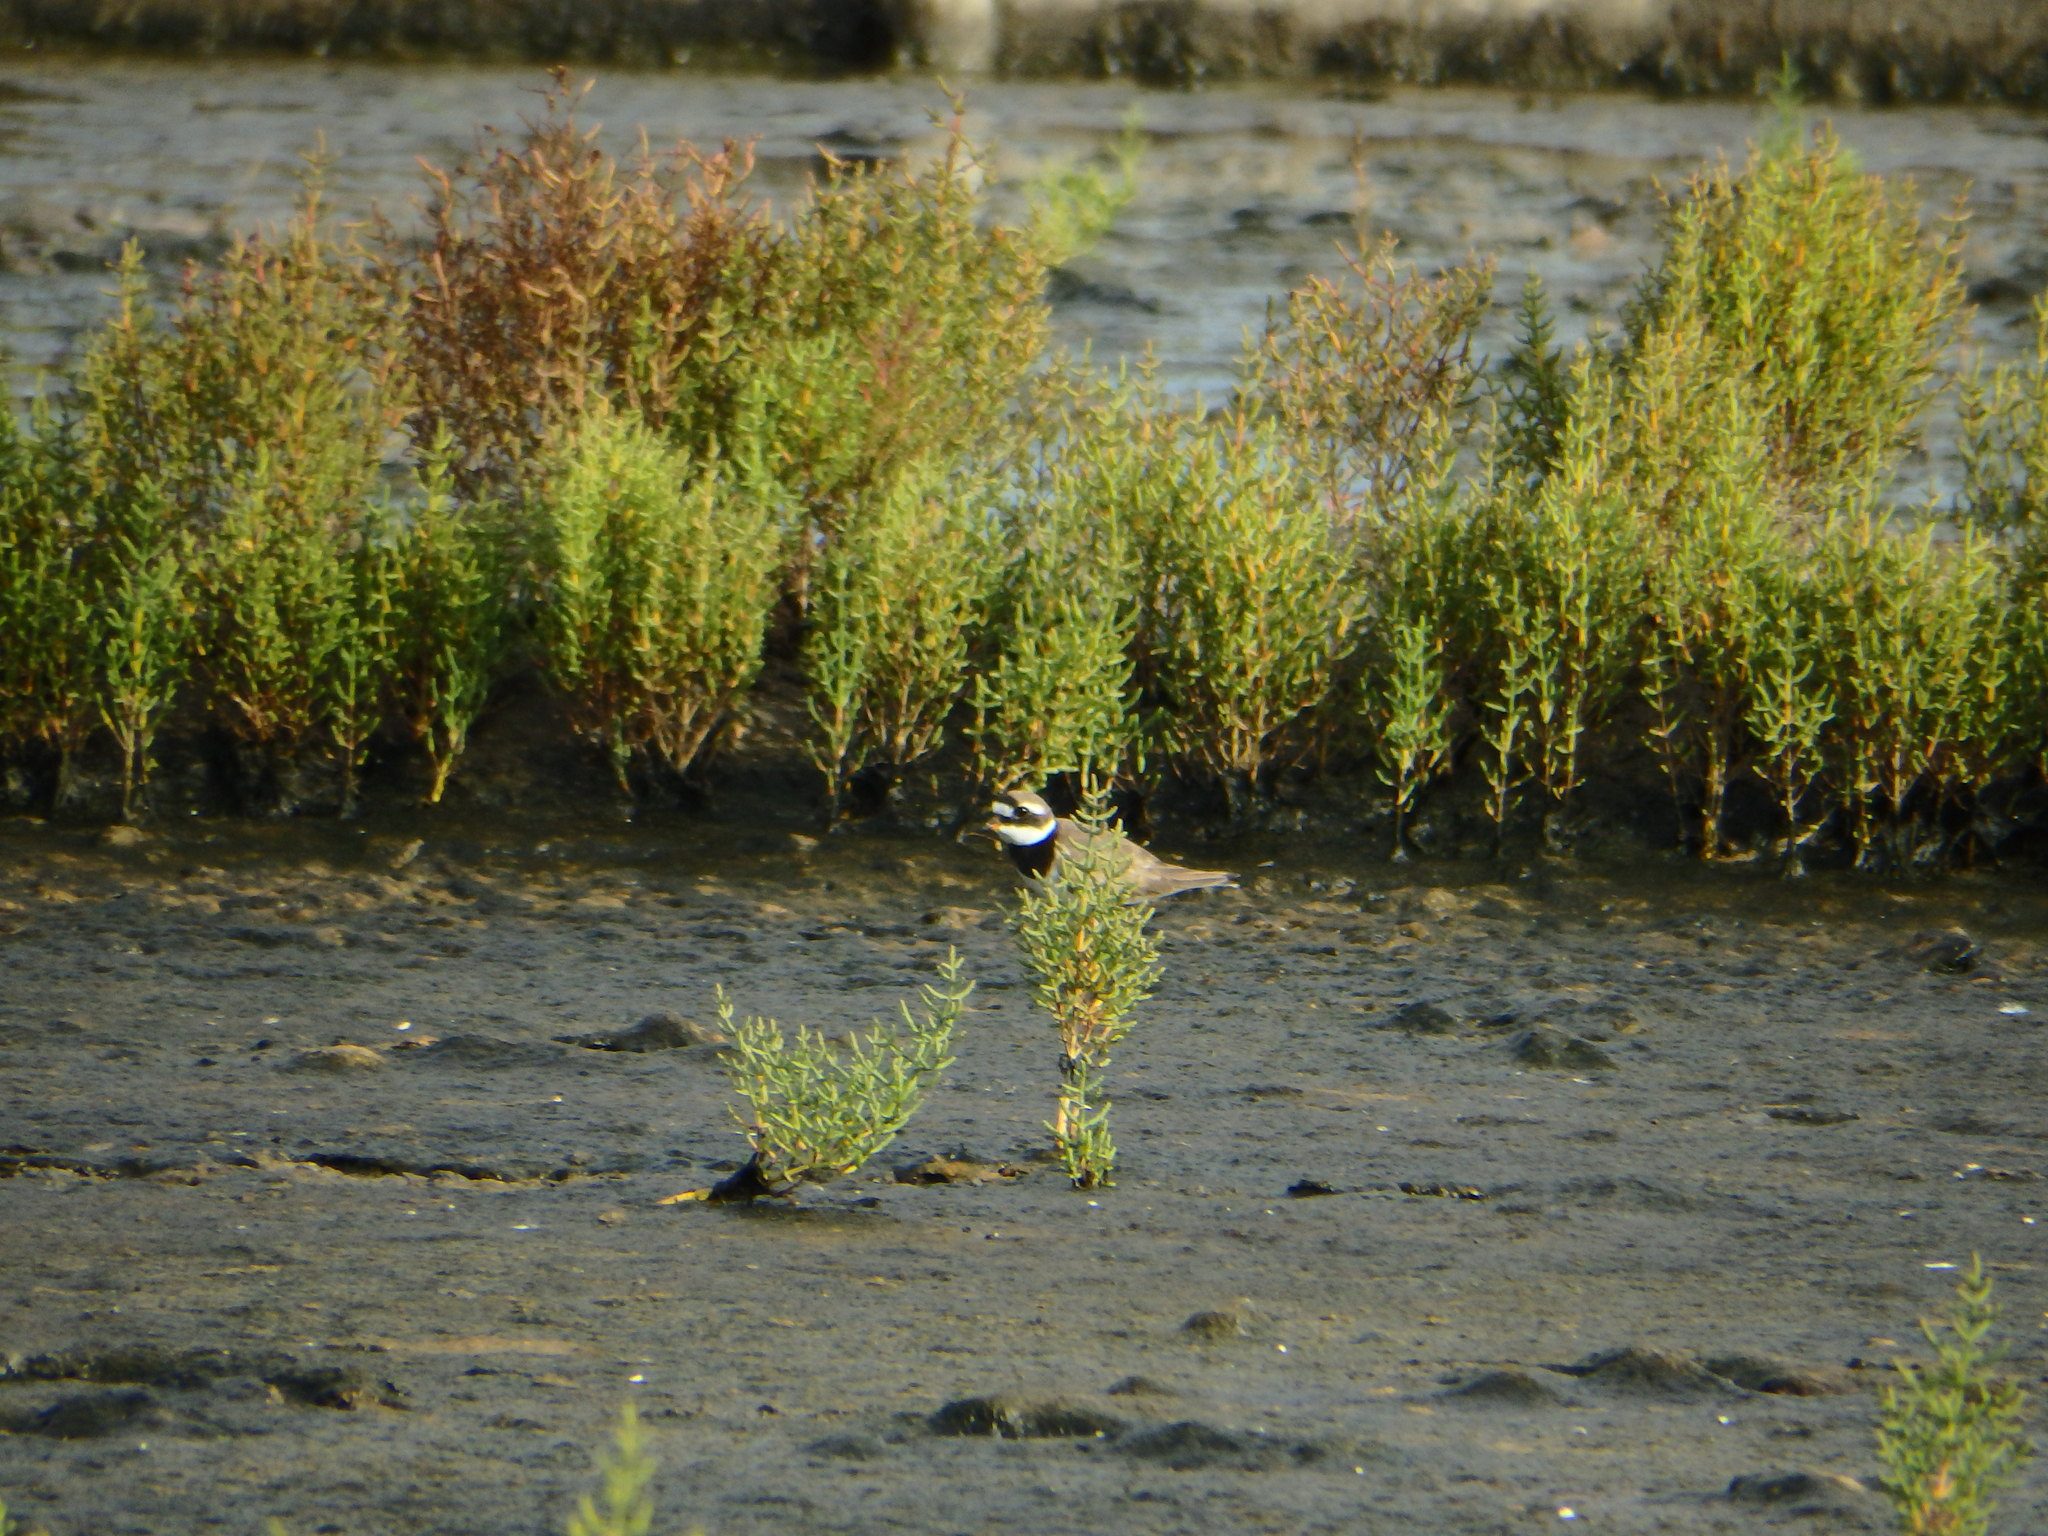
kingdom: Animalia
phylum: Chordata
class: Aves
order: Charadriiformes
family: Charadriidae
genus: Charadrius
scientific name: Charadrius hiaticula
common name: Common ringed plover
